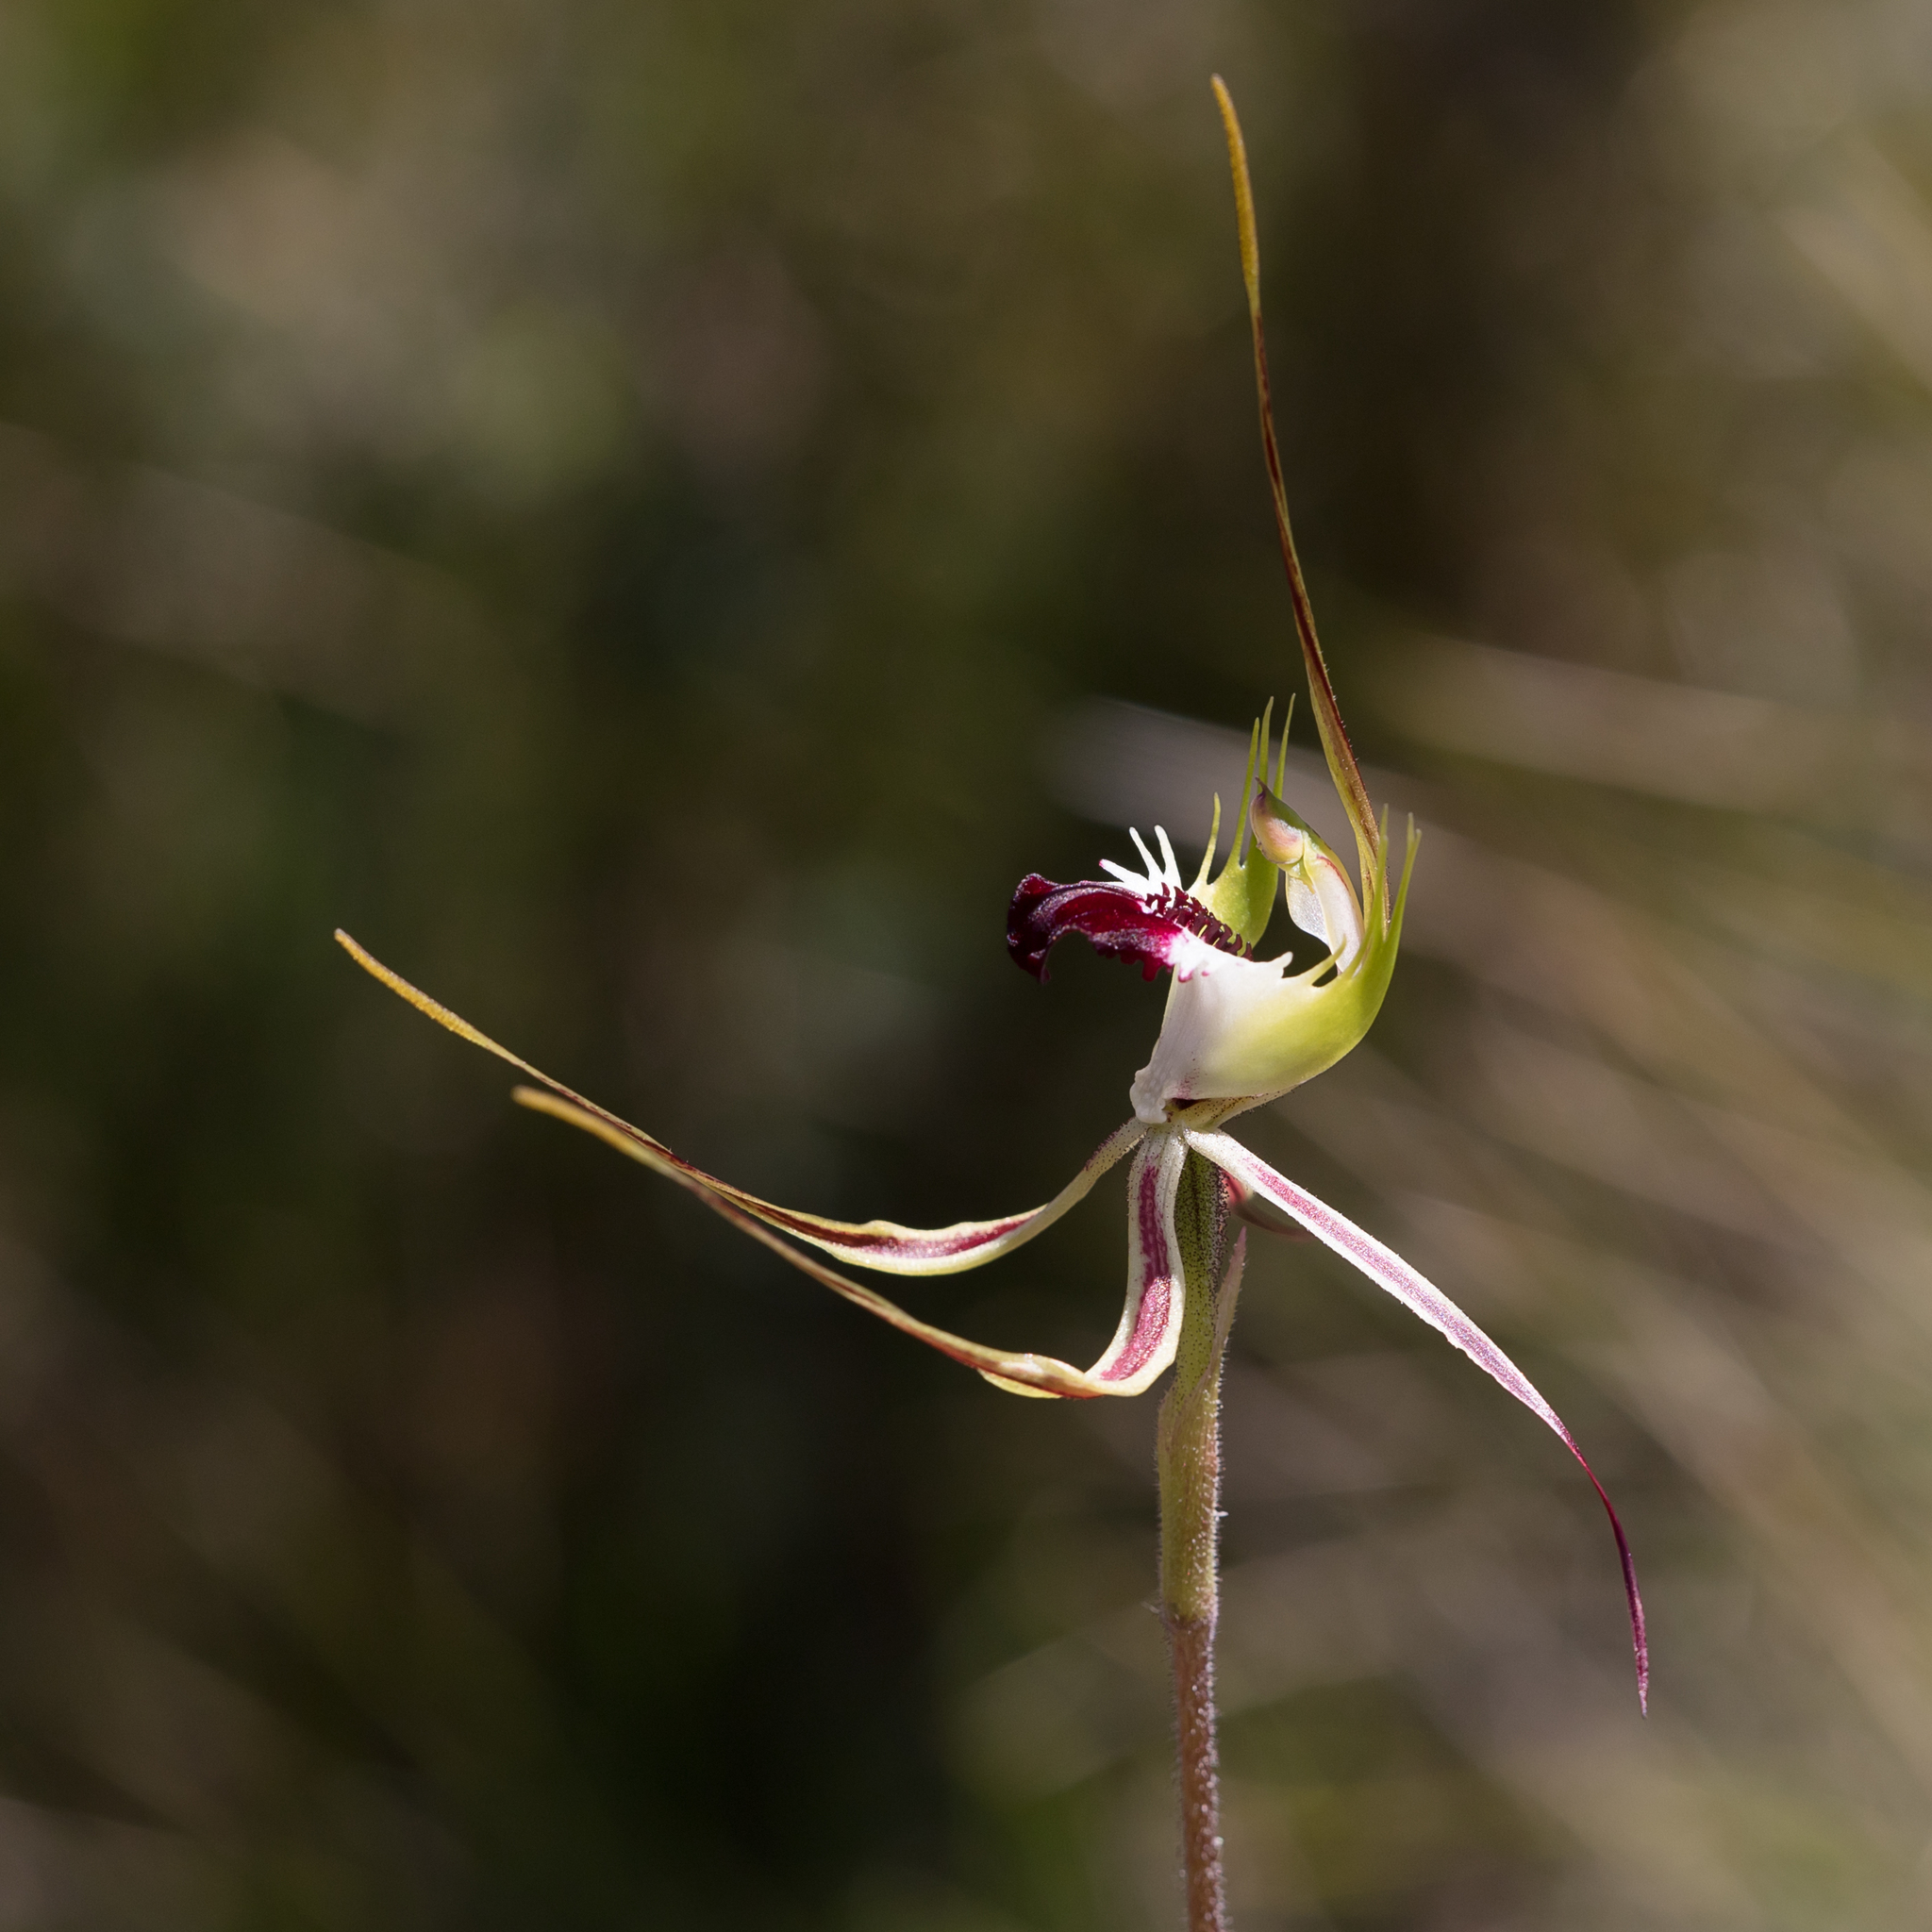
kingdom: Plantae
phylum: Tracheophyta
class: Liliopsida
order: Asparagales
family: Orchidaceae
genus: Caladenia
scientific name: Caladenia tentaculata
